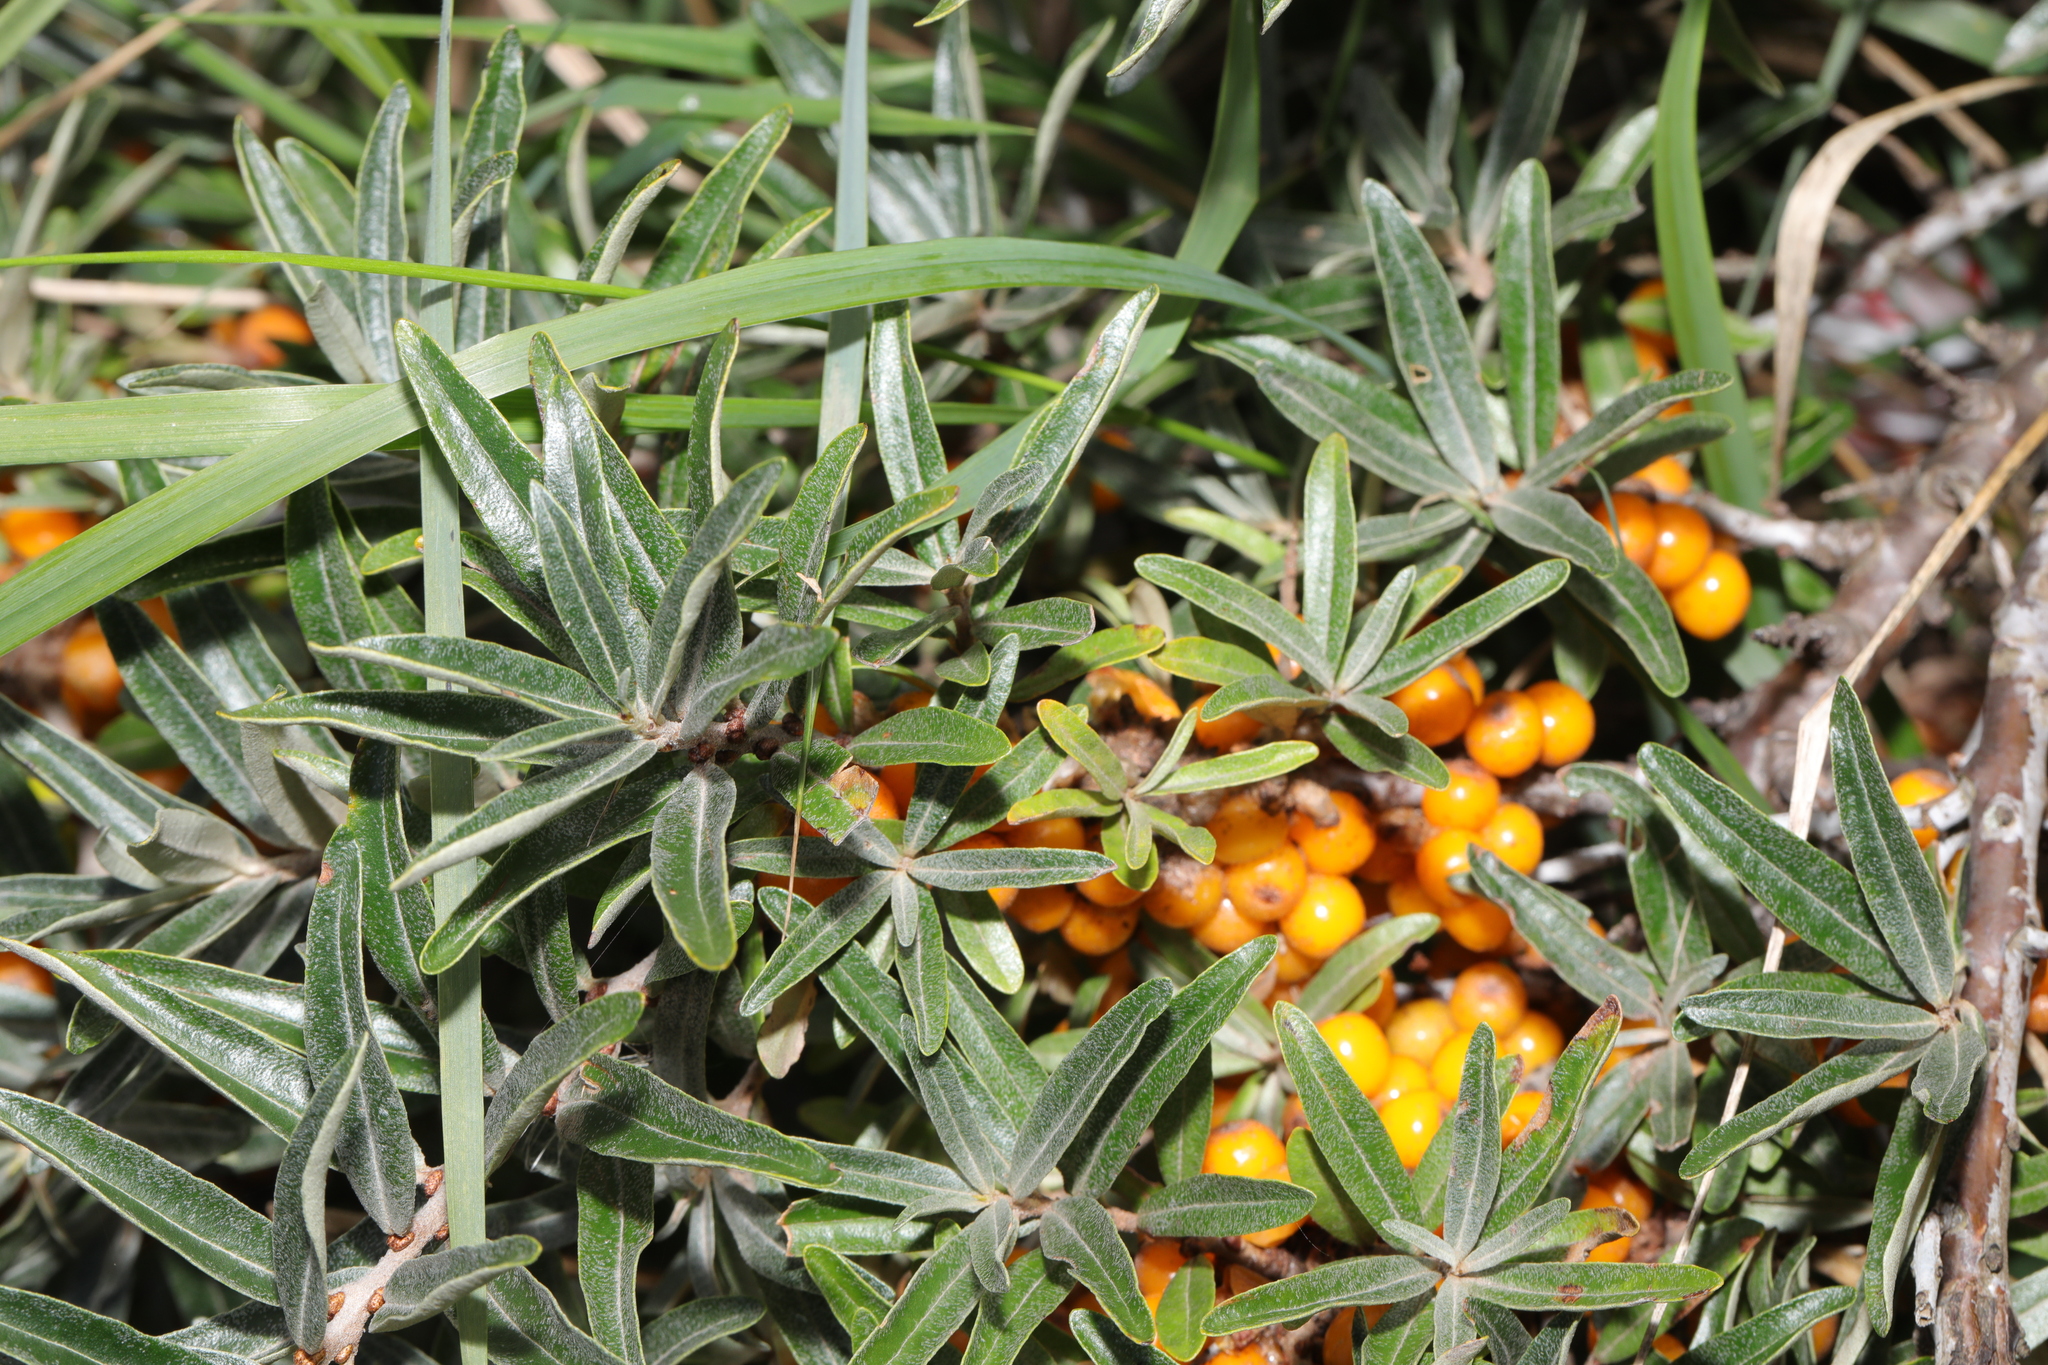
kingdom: Plantae
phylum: Tracheophyta
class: Magnoliopsida
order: Rosales
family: Elaeagnaceae
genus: Hippophae
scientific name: Hippophae rhamnoides
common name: Sea-buckthorn
